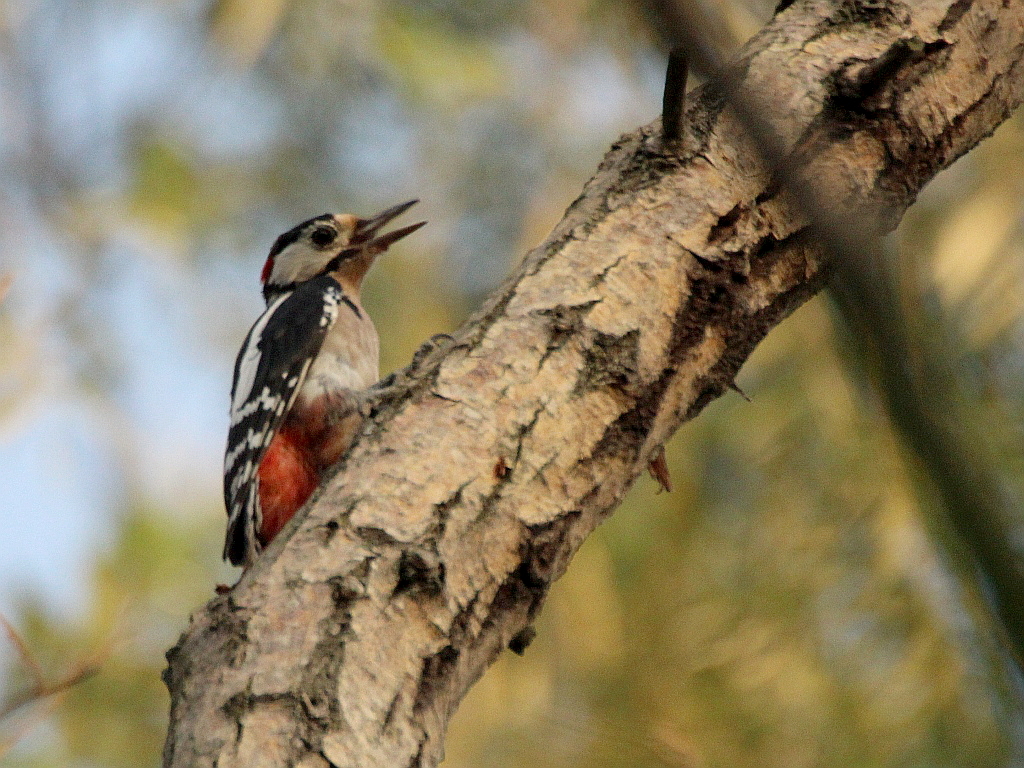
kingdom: Animalia
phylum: Chordata
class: Aves
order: Piciformes
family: Picidae
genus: Dendrocopos
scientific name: Dendrocopos major
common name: Great spotted woodpecker
